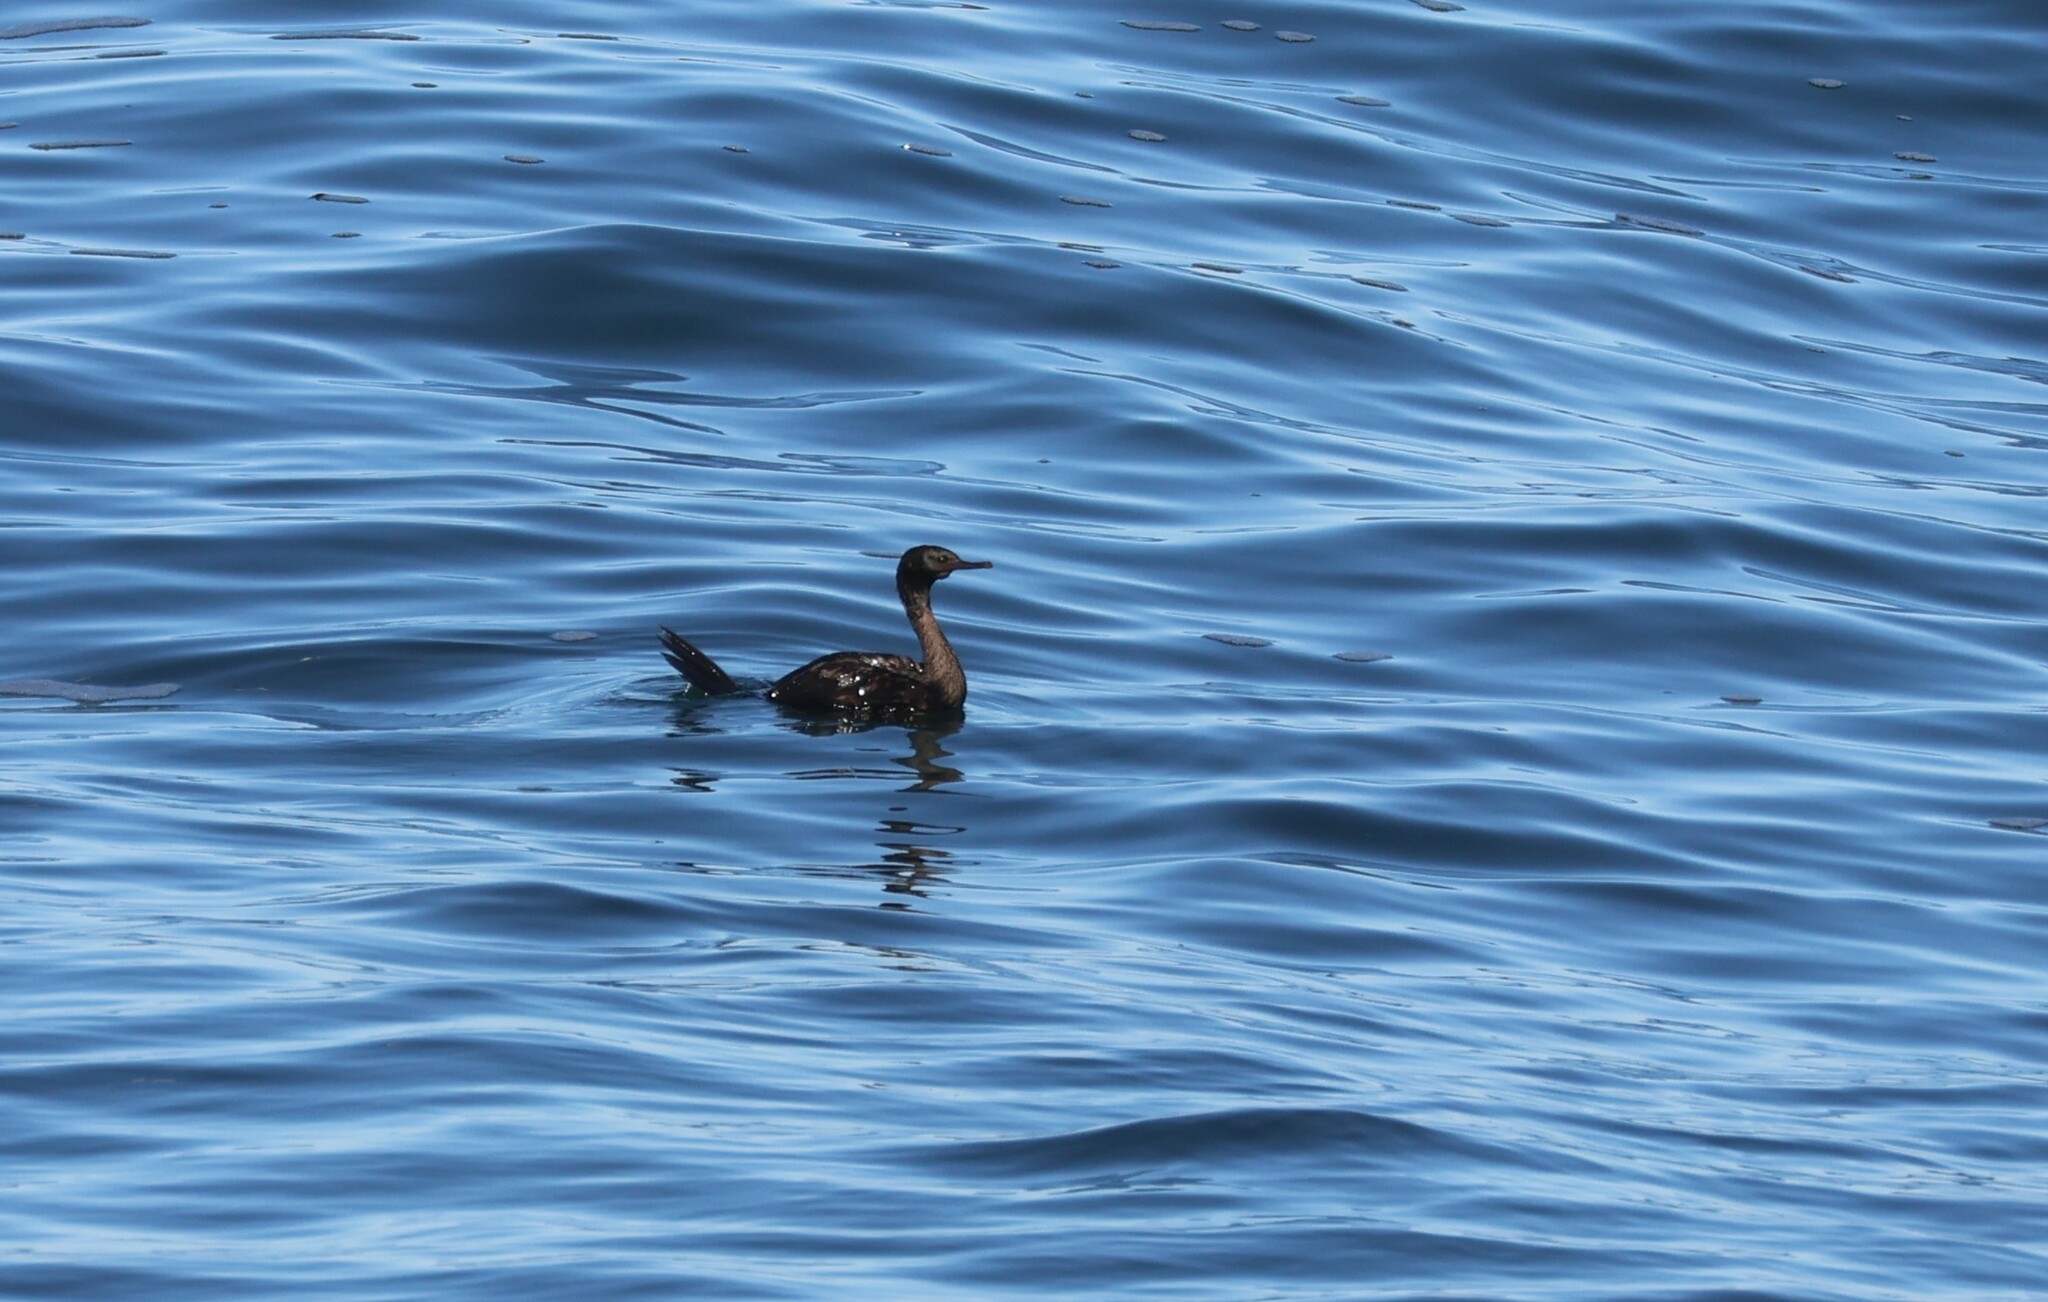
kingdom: Animalia
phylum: Chordata
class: Aves
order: Suliformes
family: Phalacrocoracidae
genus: Phalacrocorax
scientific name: Phalacrocorax pelagicus
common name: Pelagic cormorant
